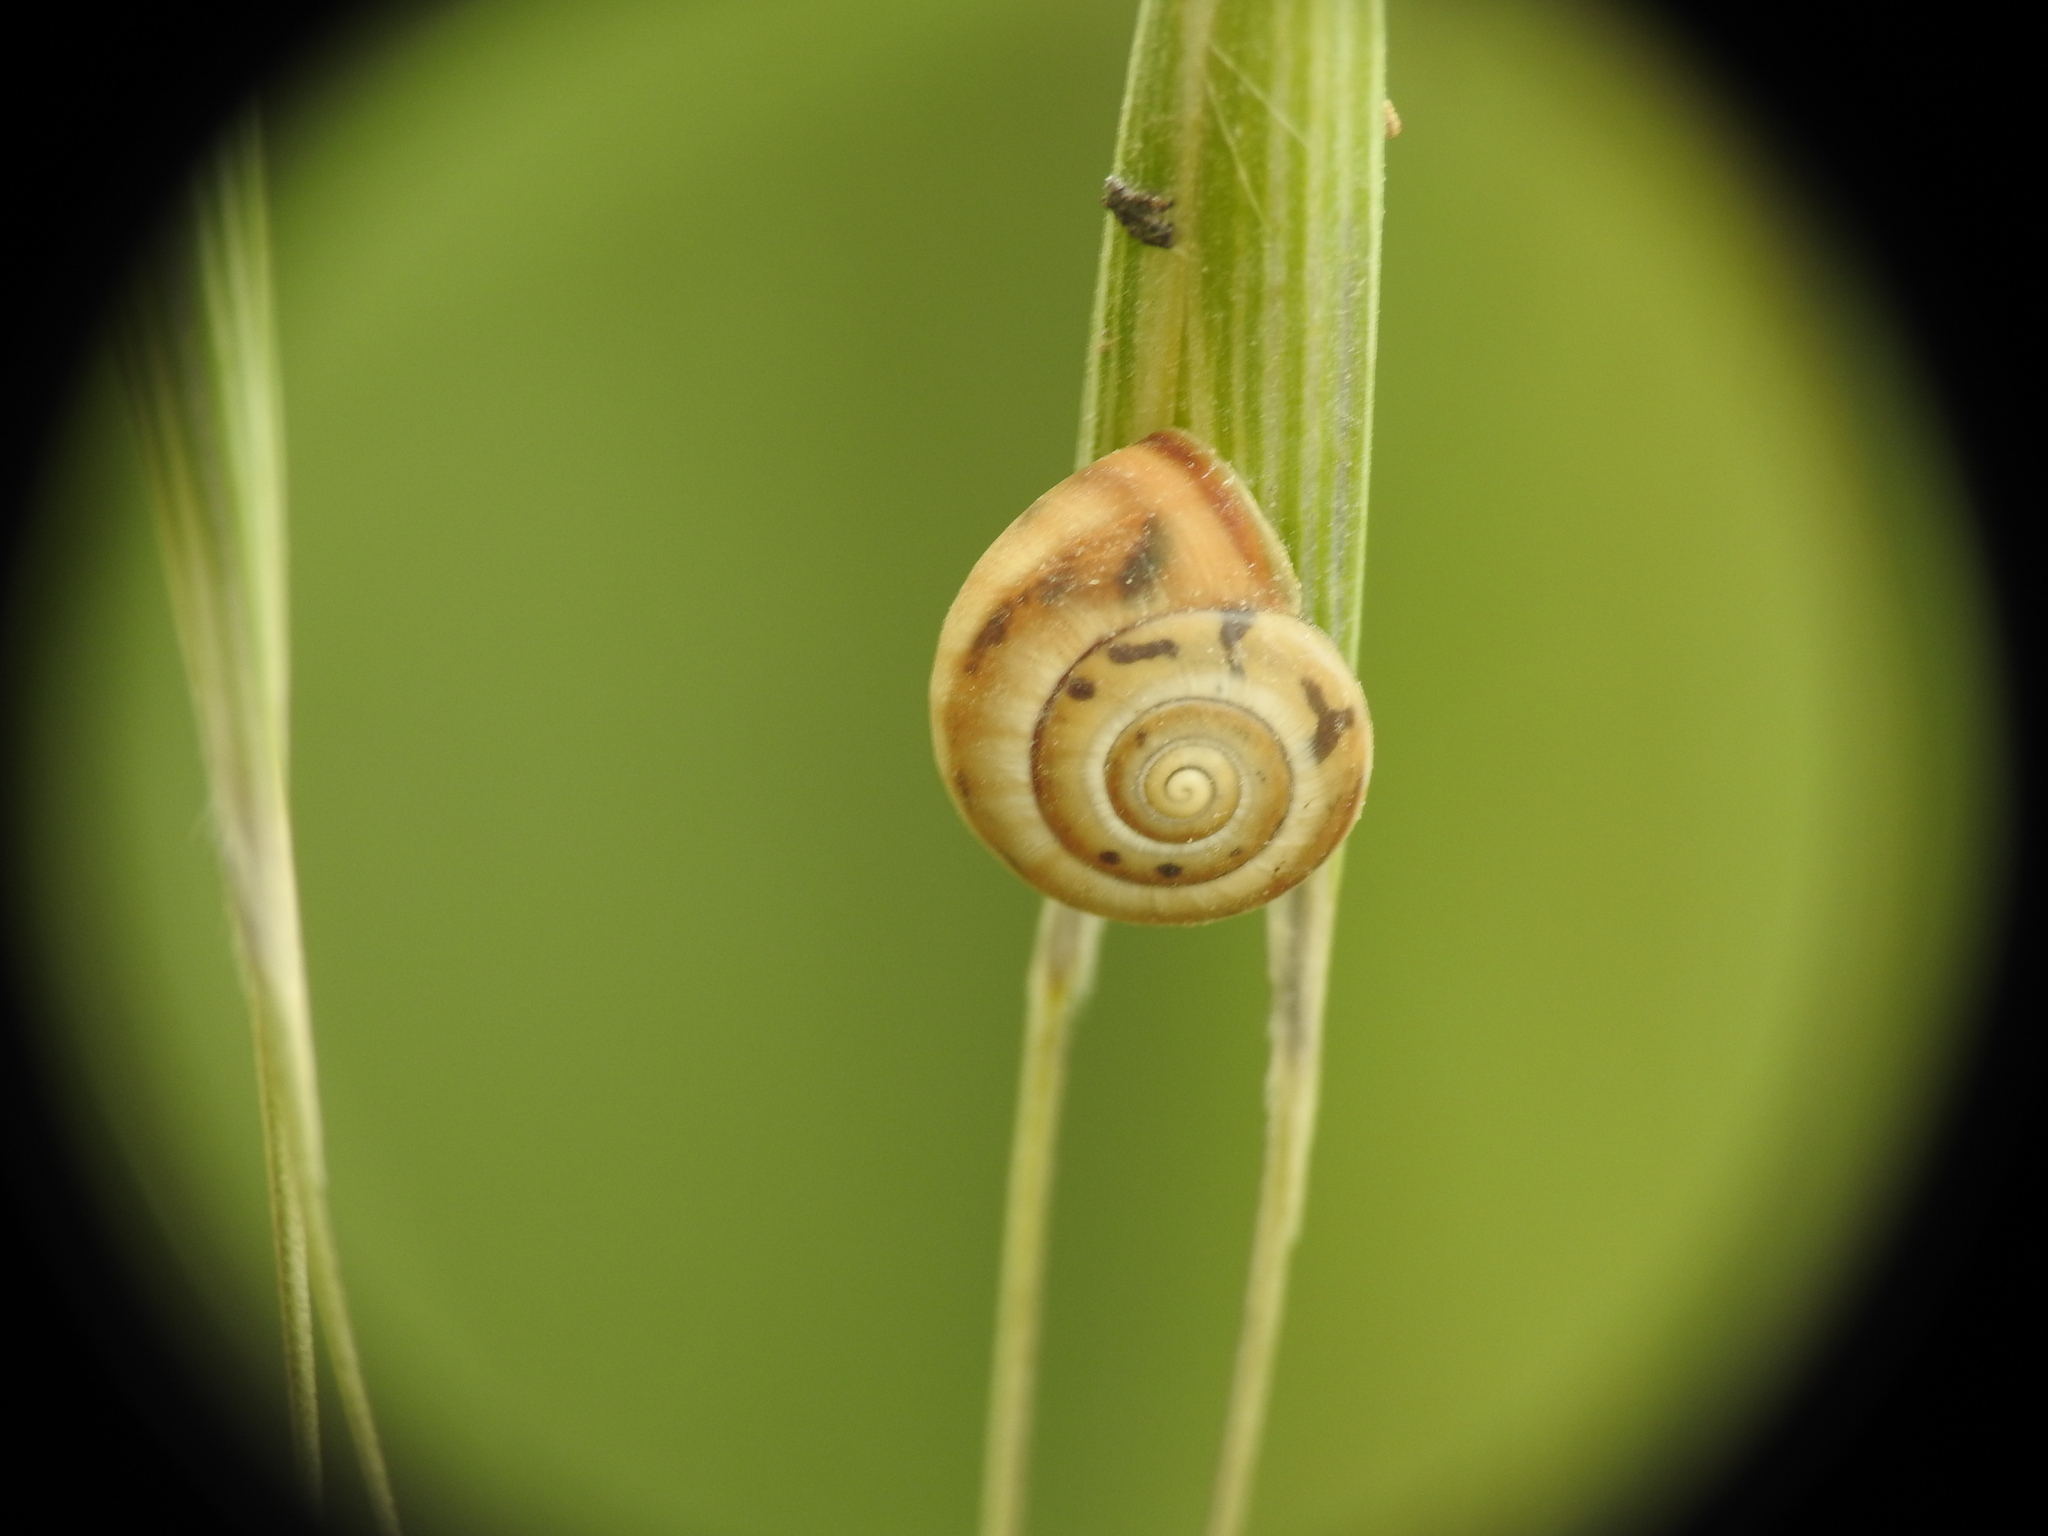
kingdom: Animalia
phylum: Mollusca
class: Gastropoda
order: Stylommatophora
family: Hygromiidae
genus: Monacha
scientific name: Monacha syriaca
